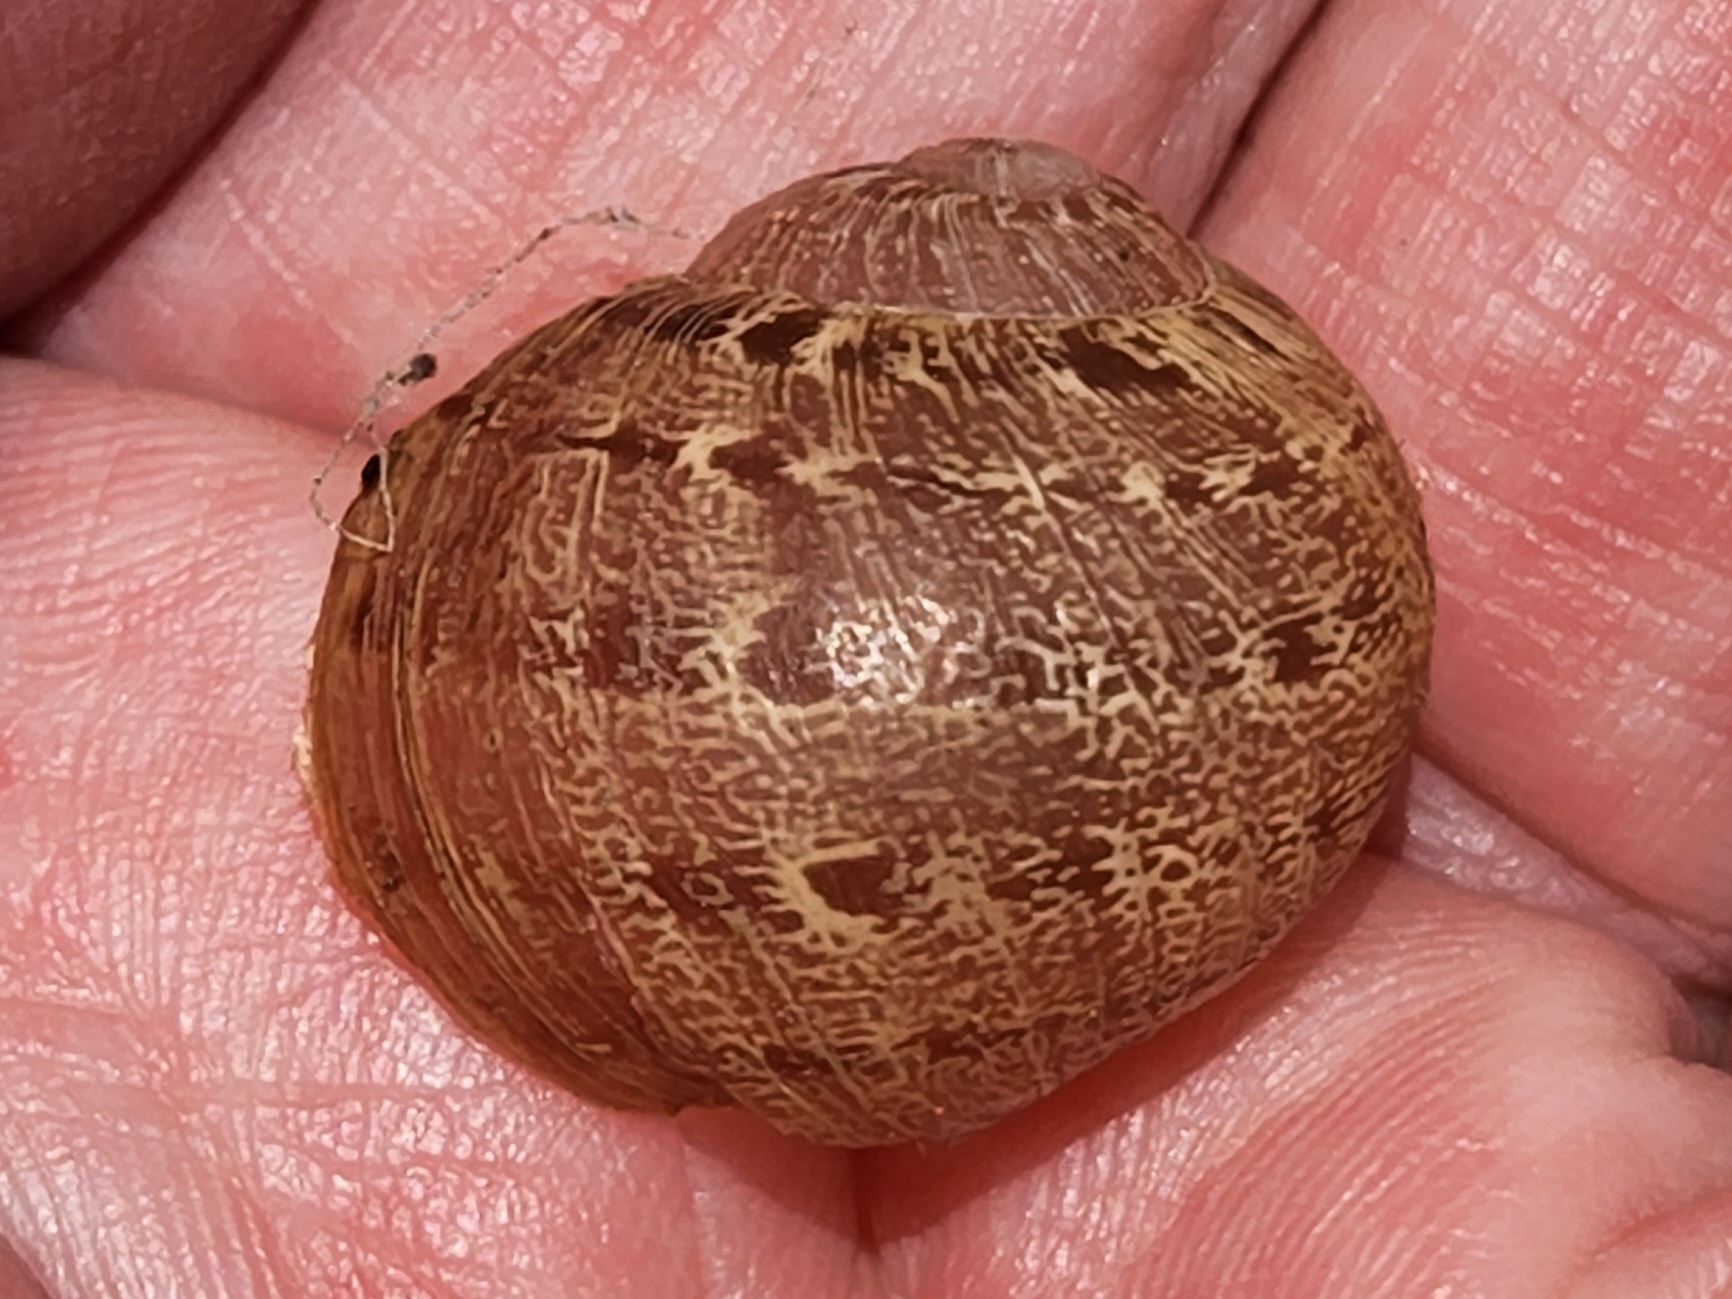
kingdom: Animalia
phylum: Mollusca
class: Gastropoda
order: Stylommatophora
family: Helicidae
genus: Cornu
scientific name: Cornu aspersum
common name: Brown garden snail
